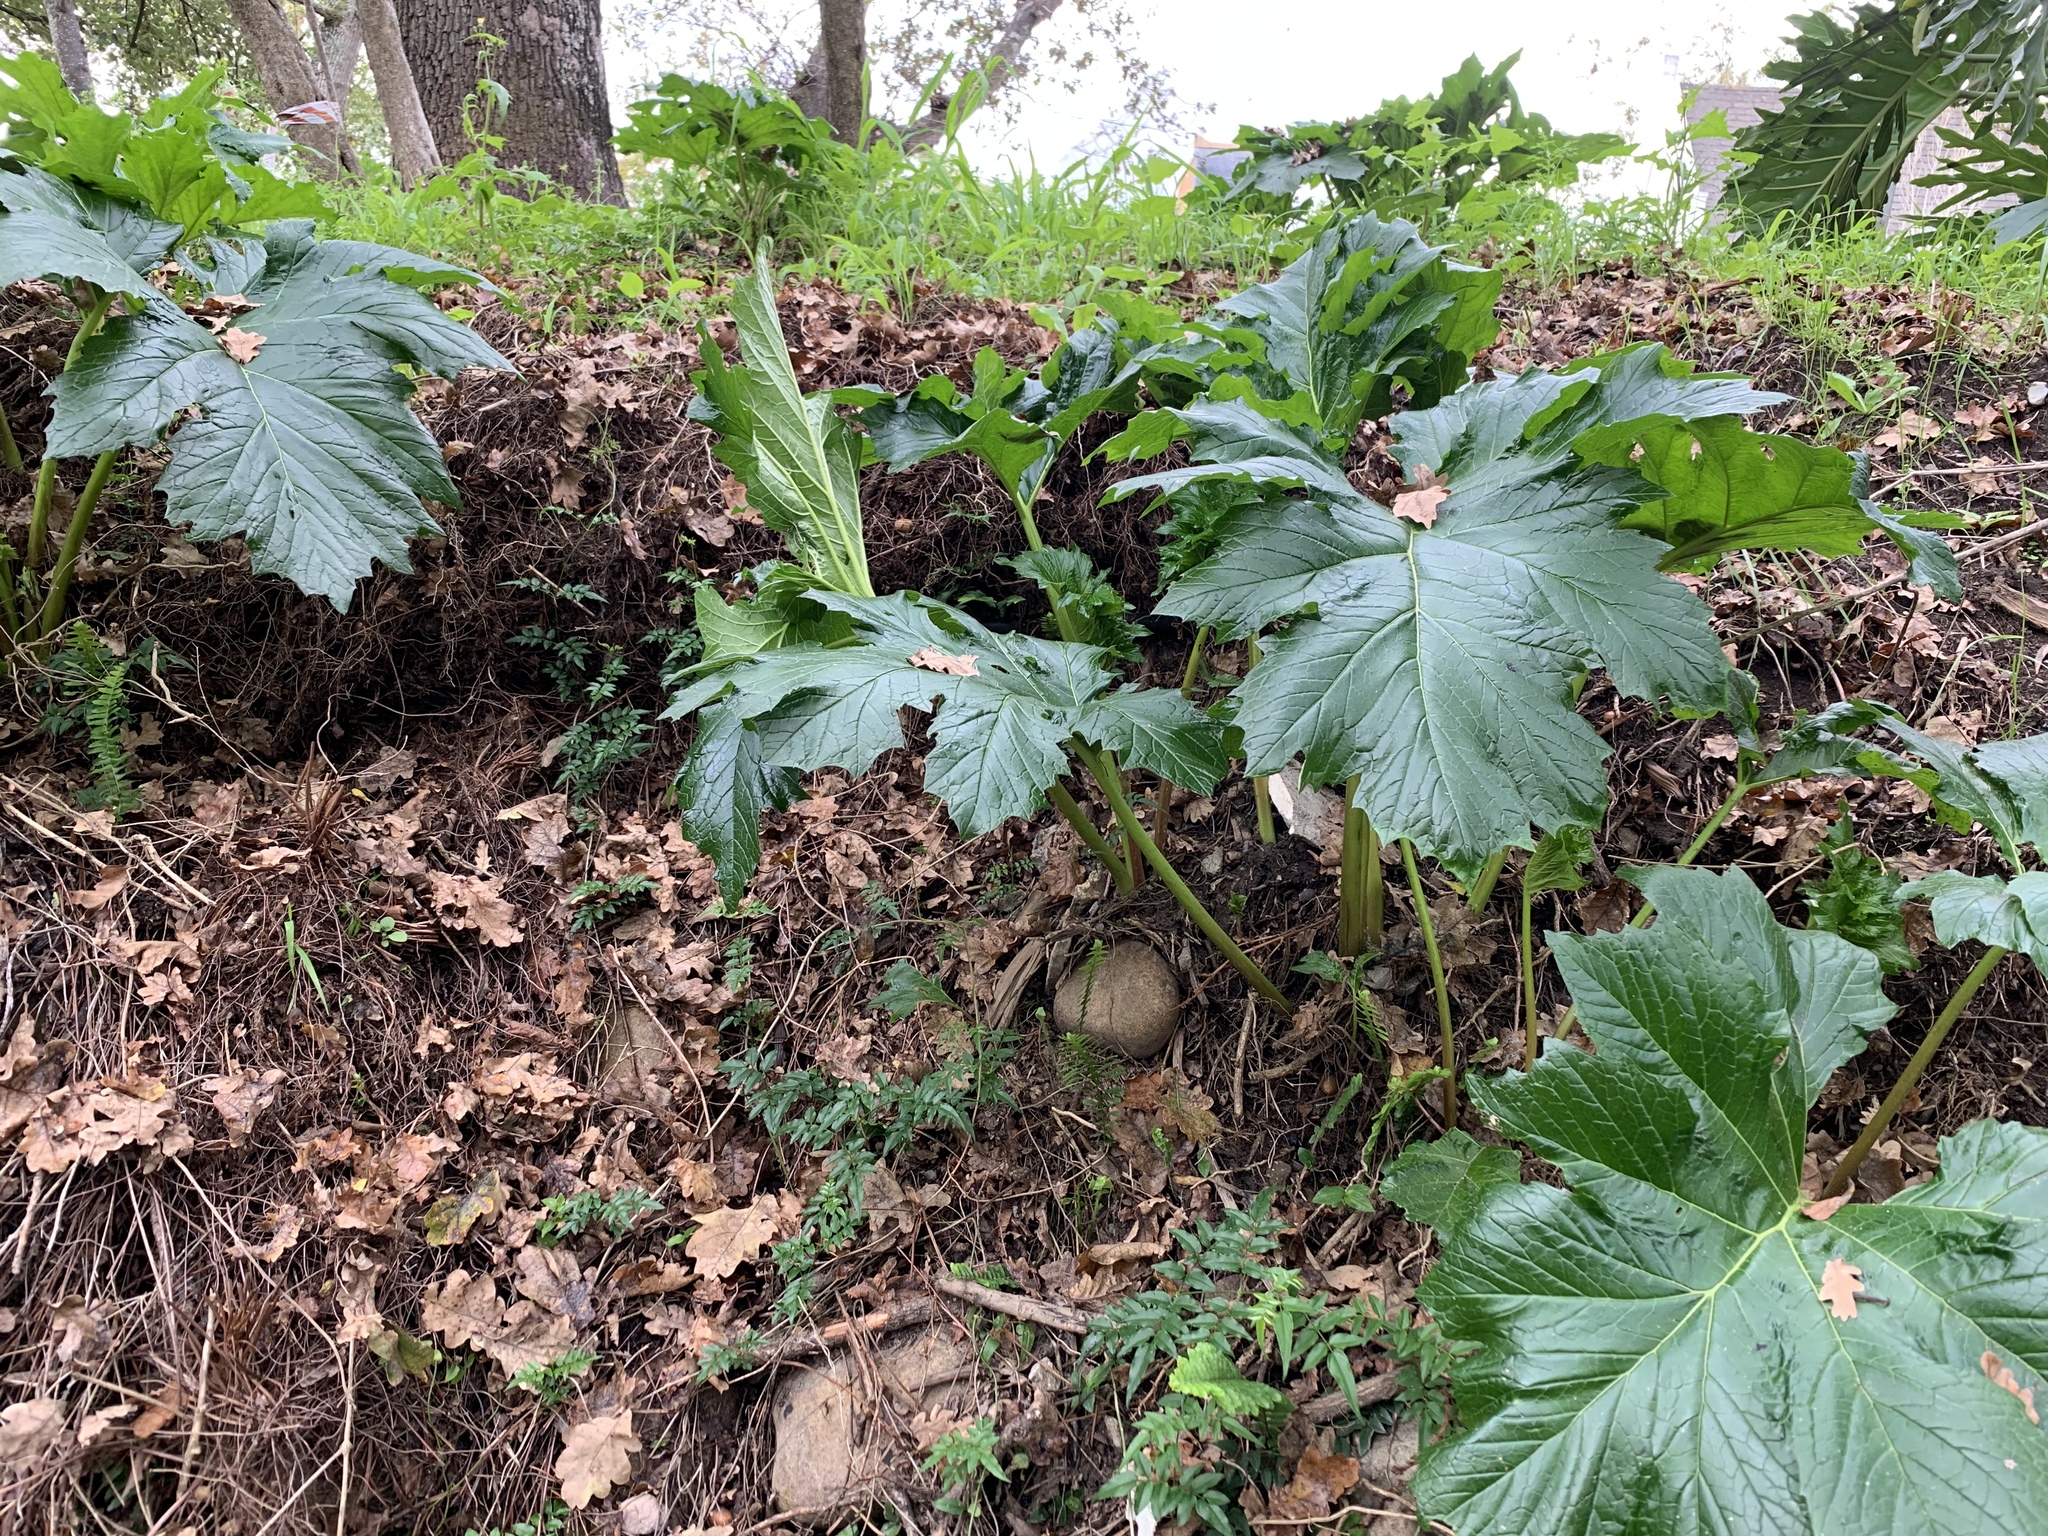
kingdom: Plantae
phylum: Tracheophyta
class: Magnoliopsida
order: Lamiales
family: Acanthaceae
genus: Acanthus
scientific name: Acanthus mollis
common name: Bear's-breech
